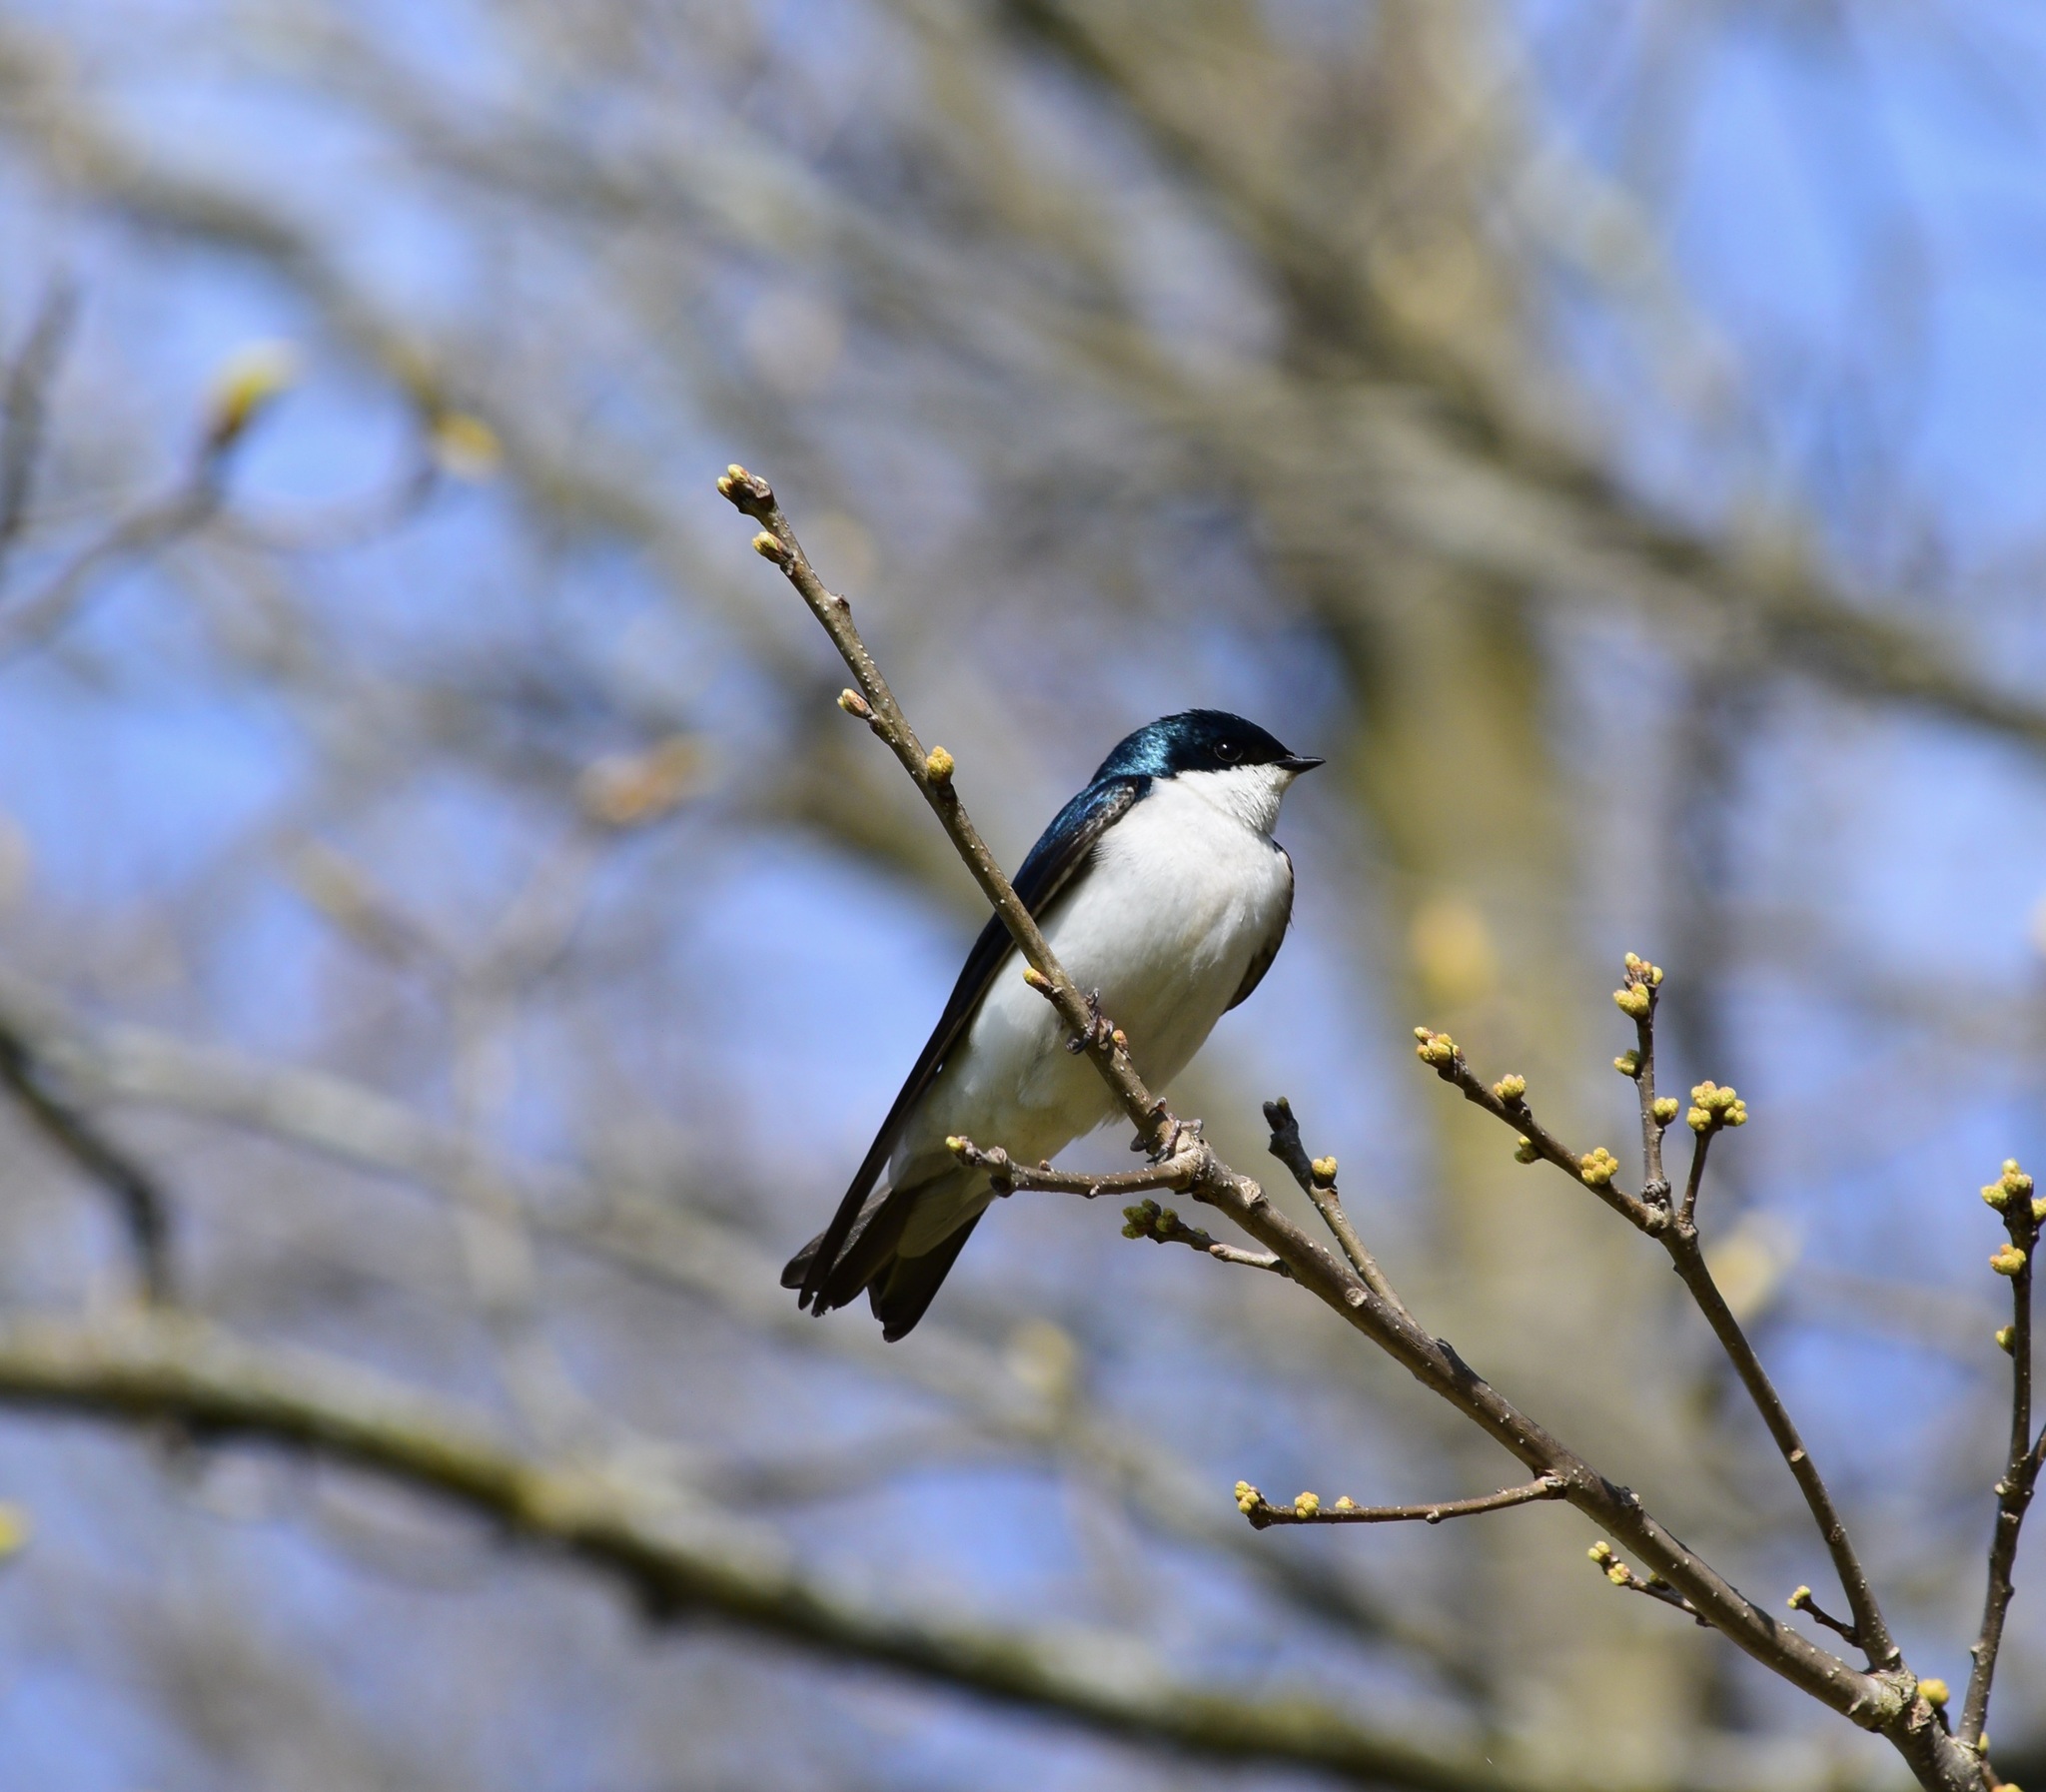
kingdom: Animalia
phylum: Chordata
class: Aves
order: Passeriformes
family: Hirundinidae
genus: Tachycineta
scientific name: Tachycineta bicolor
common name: Tree swallow
